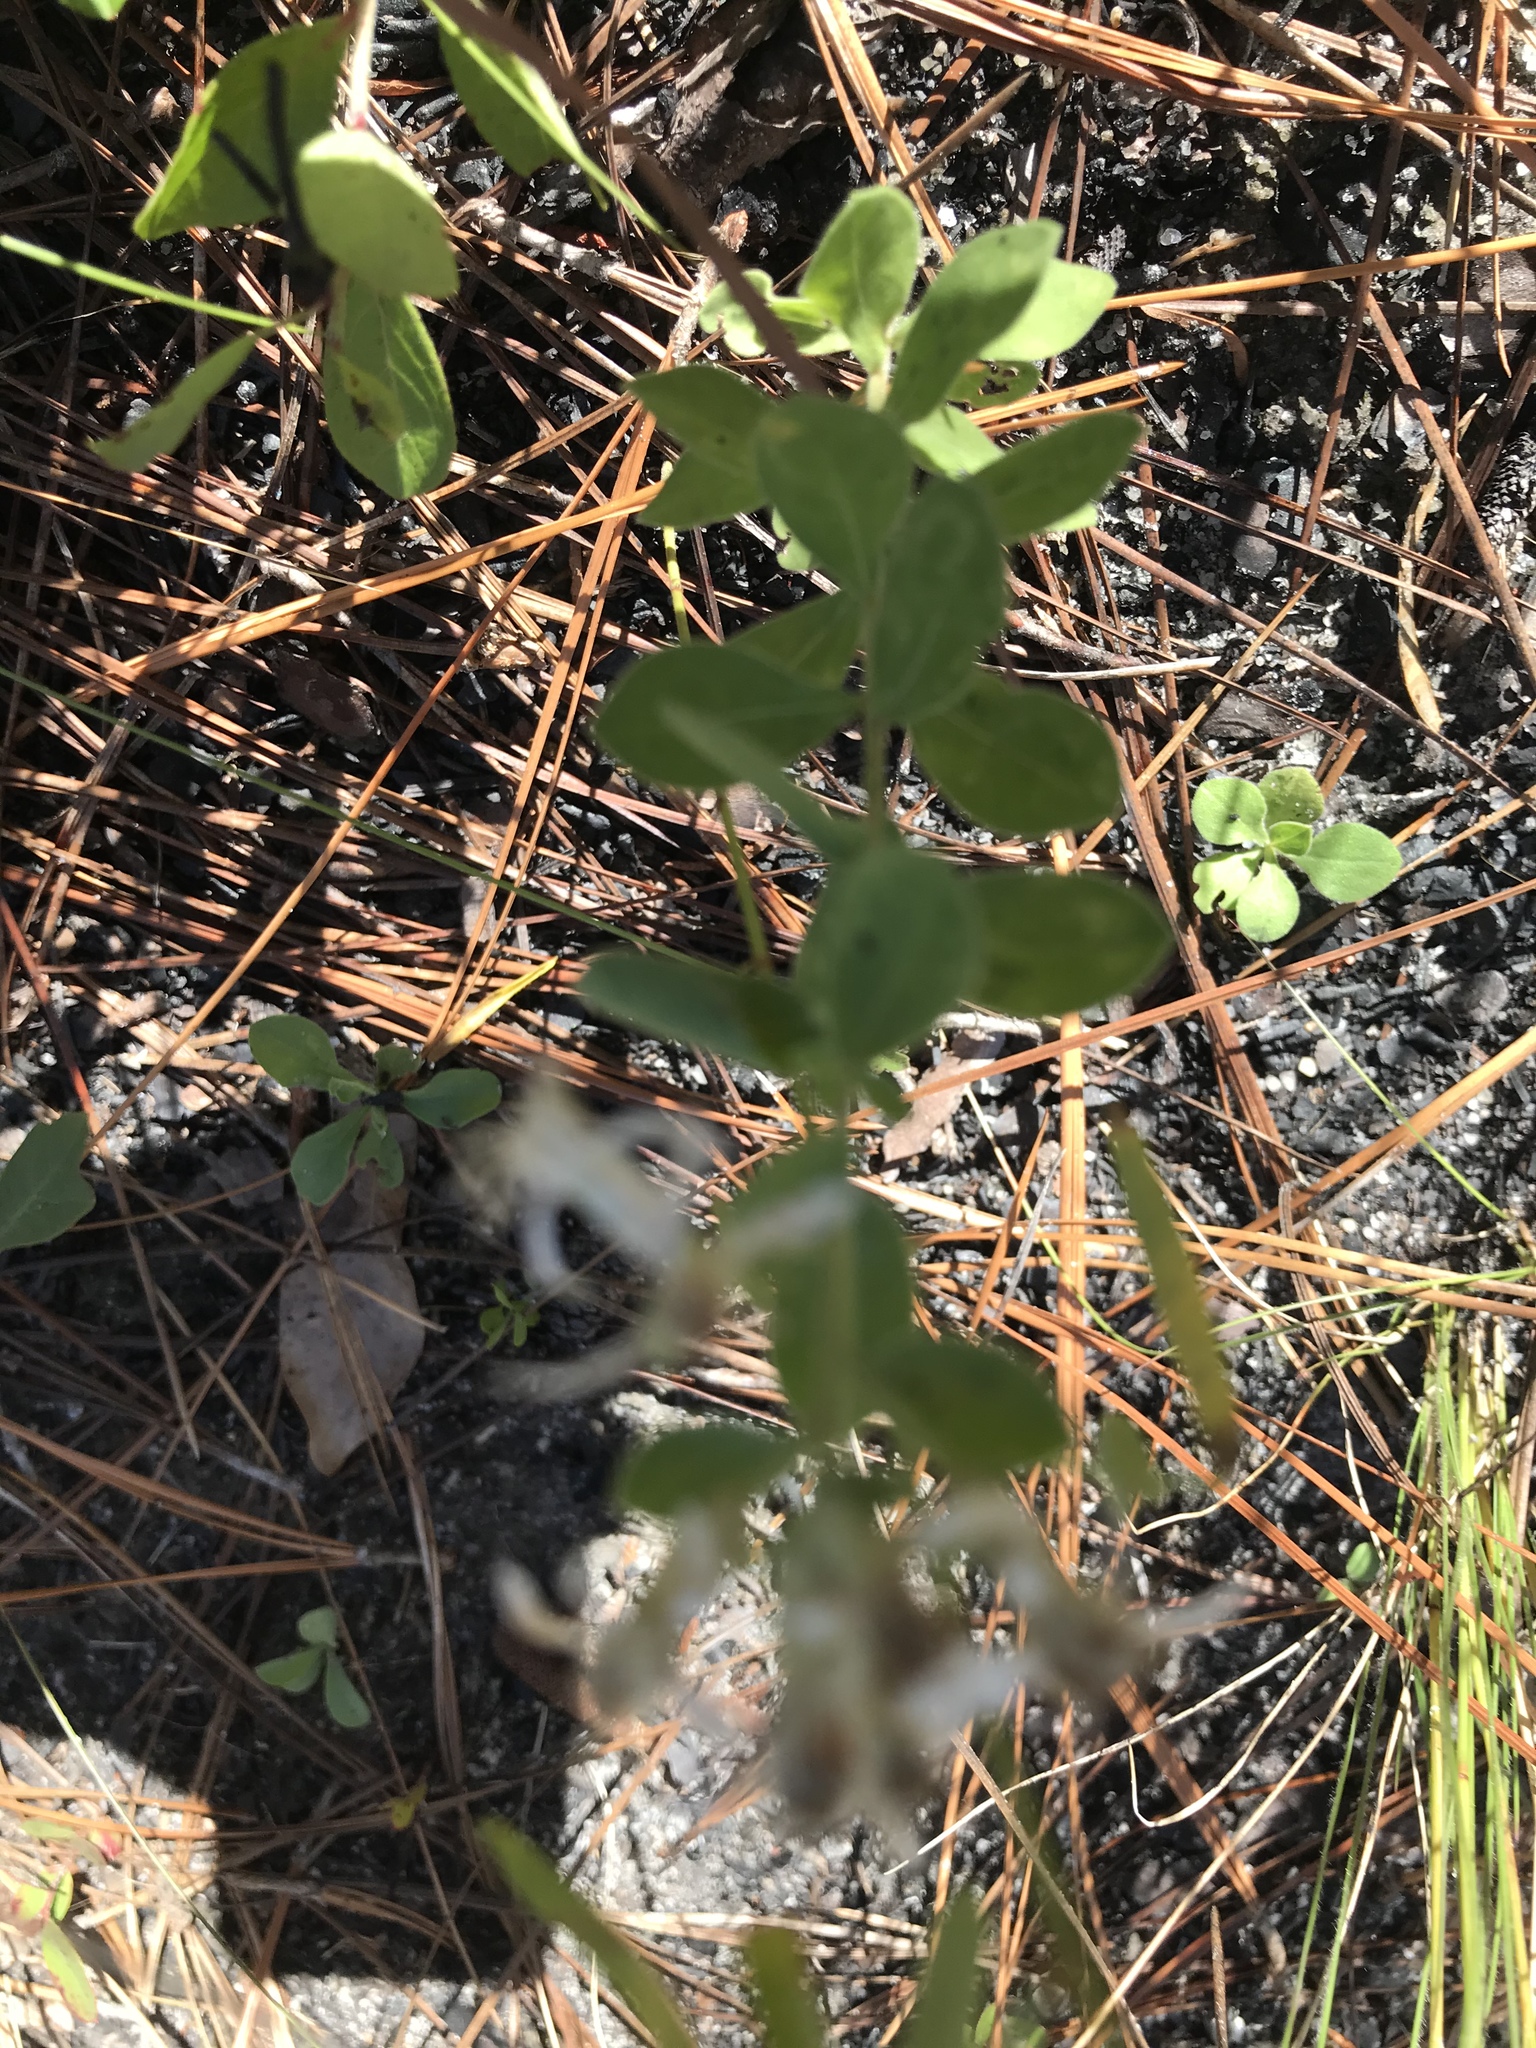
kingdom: Plantae
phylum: Tracheophyta
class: Magnoliopsida
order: Asterales
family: Asteraceae
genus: Sericocarpus
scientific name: Sericocarpus tortifolius
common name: Dixie aster
